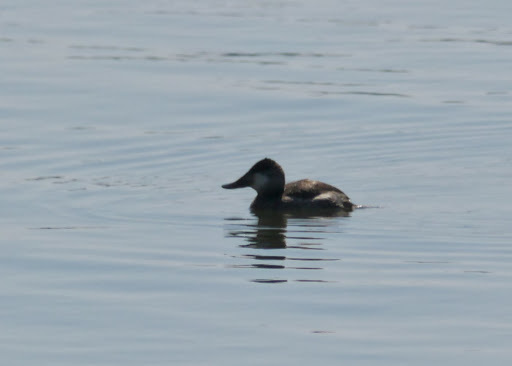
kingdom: Animalia
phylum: Chordata
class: Aves
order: Anseriformes
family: Anatidae
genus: Oxyura
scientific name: Oxyura jamaicensis
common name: Ruddy duck
